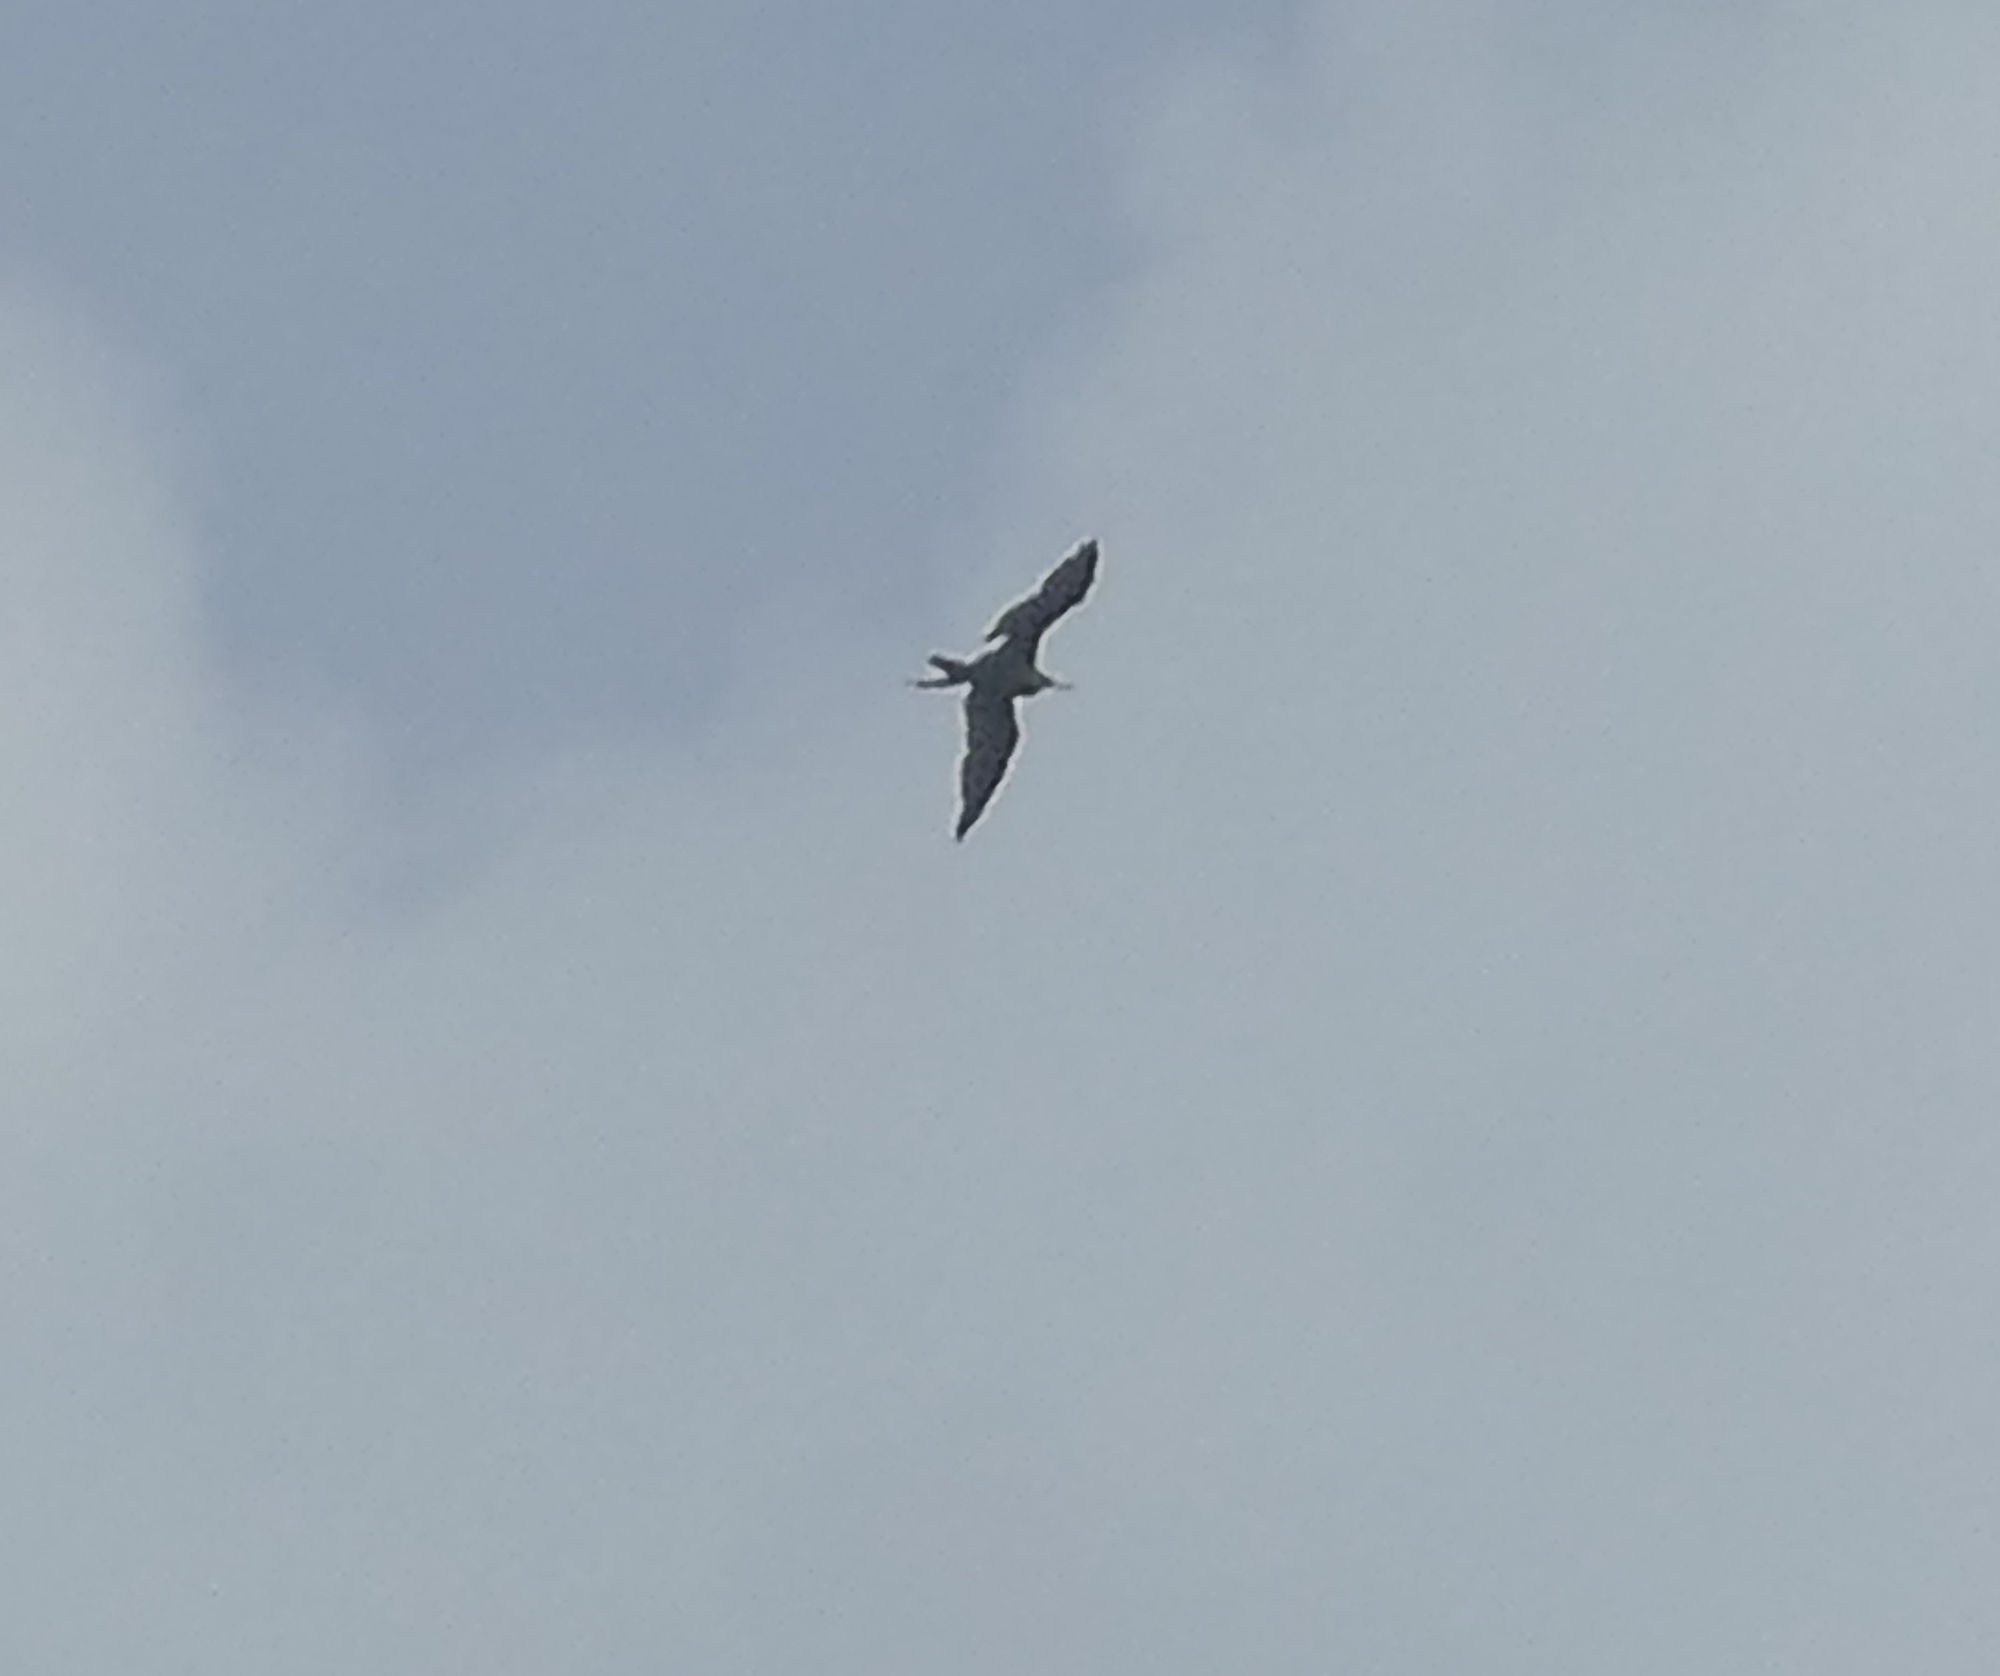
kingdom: Animalia
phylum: Chordata
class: Aves
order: Suliformes
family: Fregatidae
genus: Fregata
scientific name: Fregata magnificens
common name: Magnificent frigatebird
